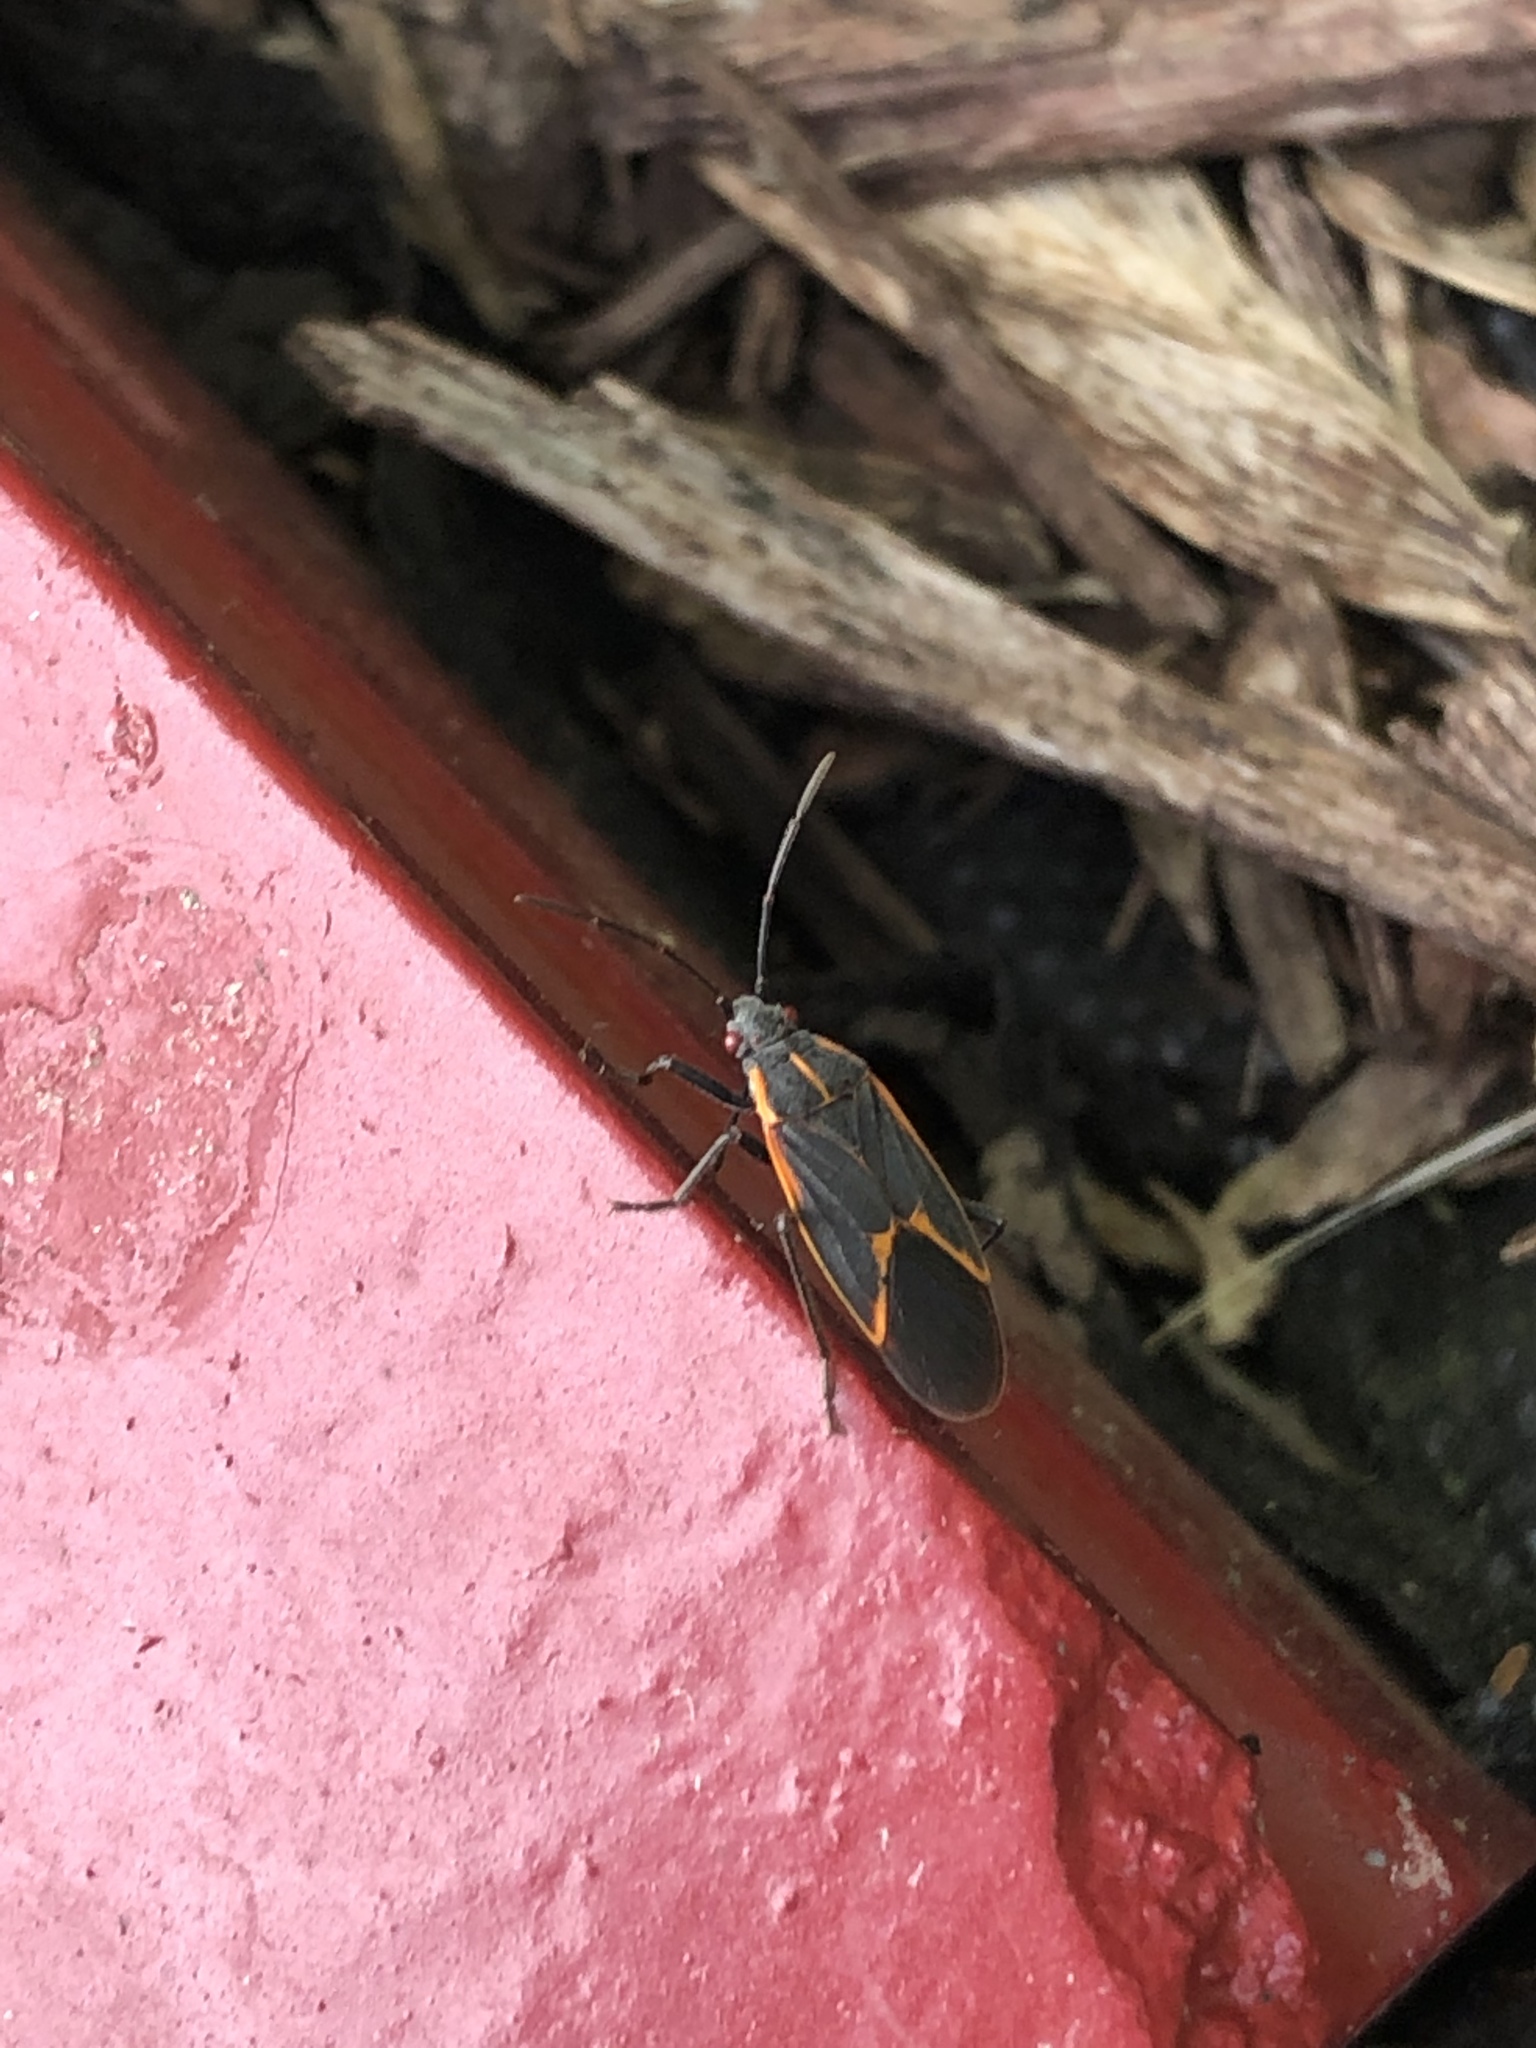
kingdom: Animalia
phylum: Arthropoda
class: Insecta
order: Hemiptera
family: Rhopalidae
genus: Boisea
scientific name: Boisea trivittata
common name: Boxelder bug
